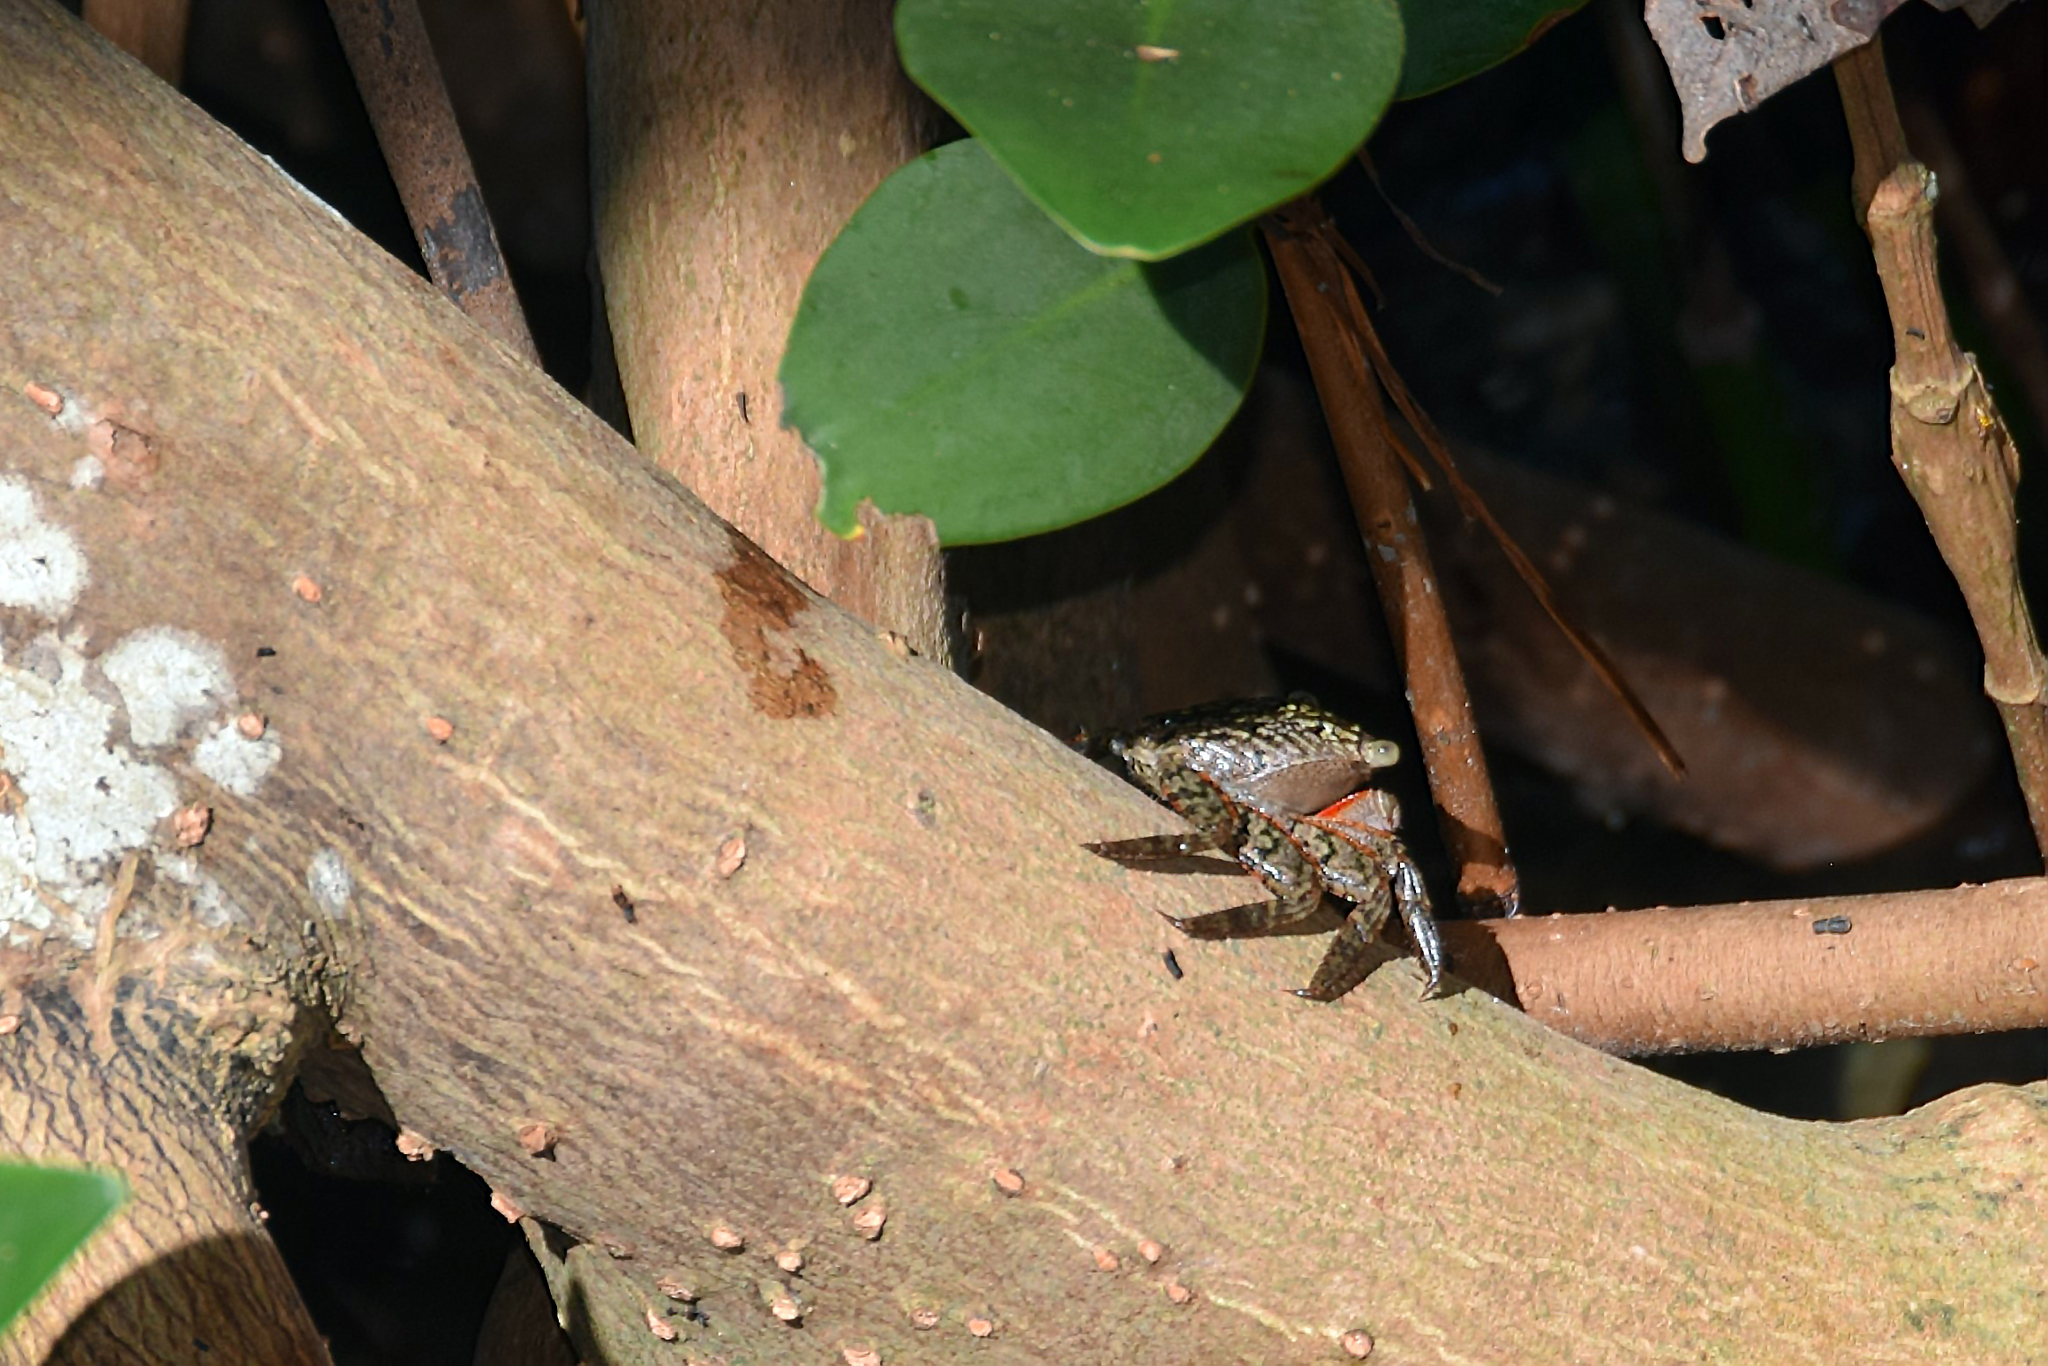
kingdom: Animalia
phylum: Arthropoda
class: Malacostraca
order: Decapoda
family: Sesarmidae
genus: Aratus
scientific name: Aratus pisonii
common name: Mangrove crab
